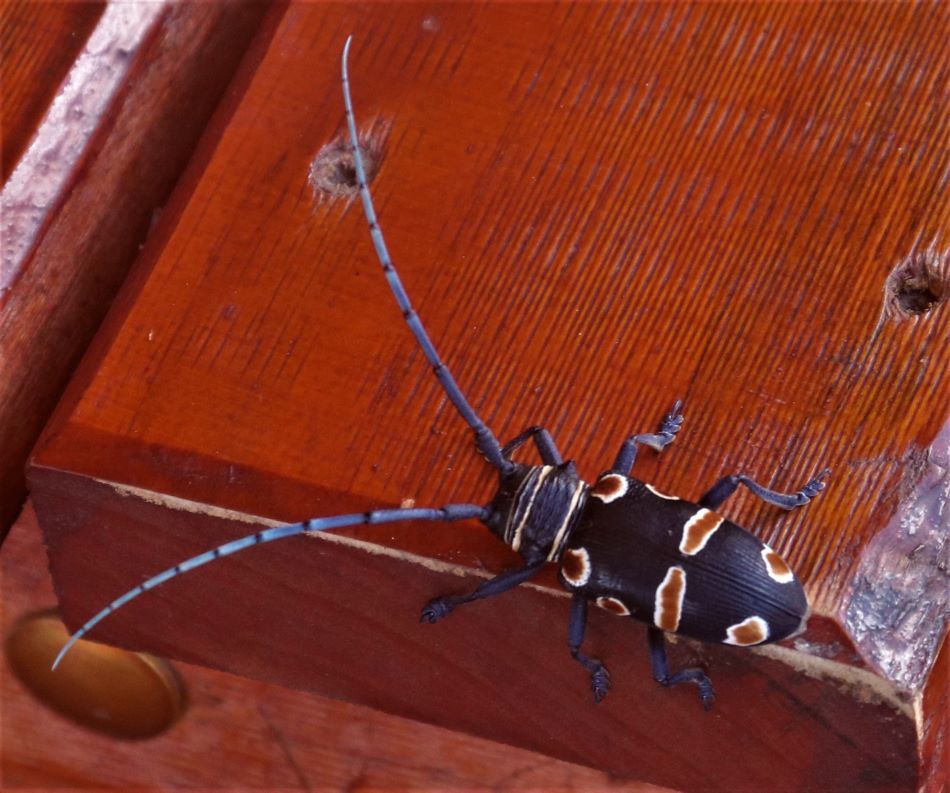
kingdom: Animalia
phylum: Arthropoda
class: Insecta
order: Coleoptera
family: Cerambycidae
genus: Zographus
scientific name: Zographus oculator
